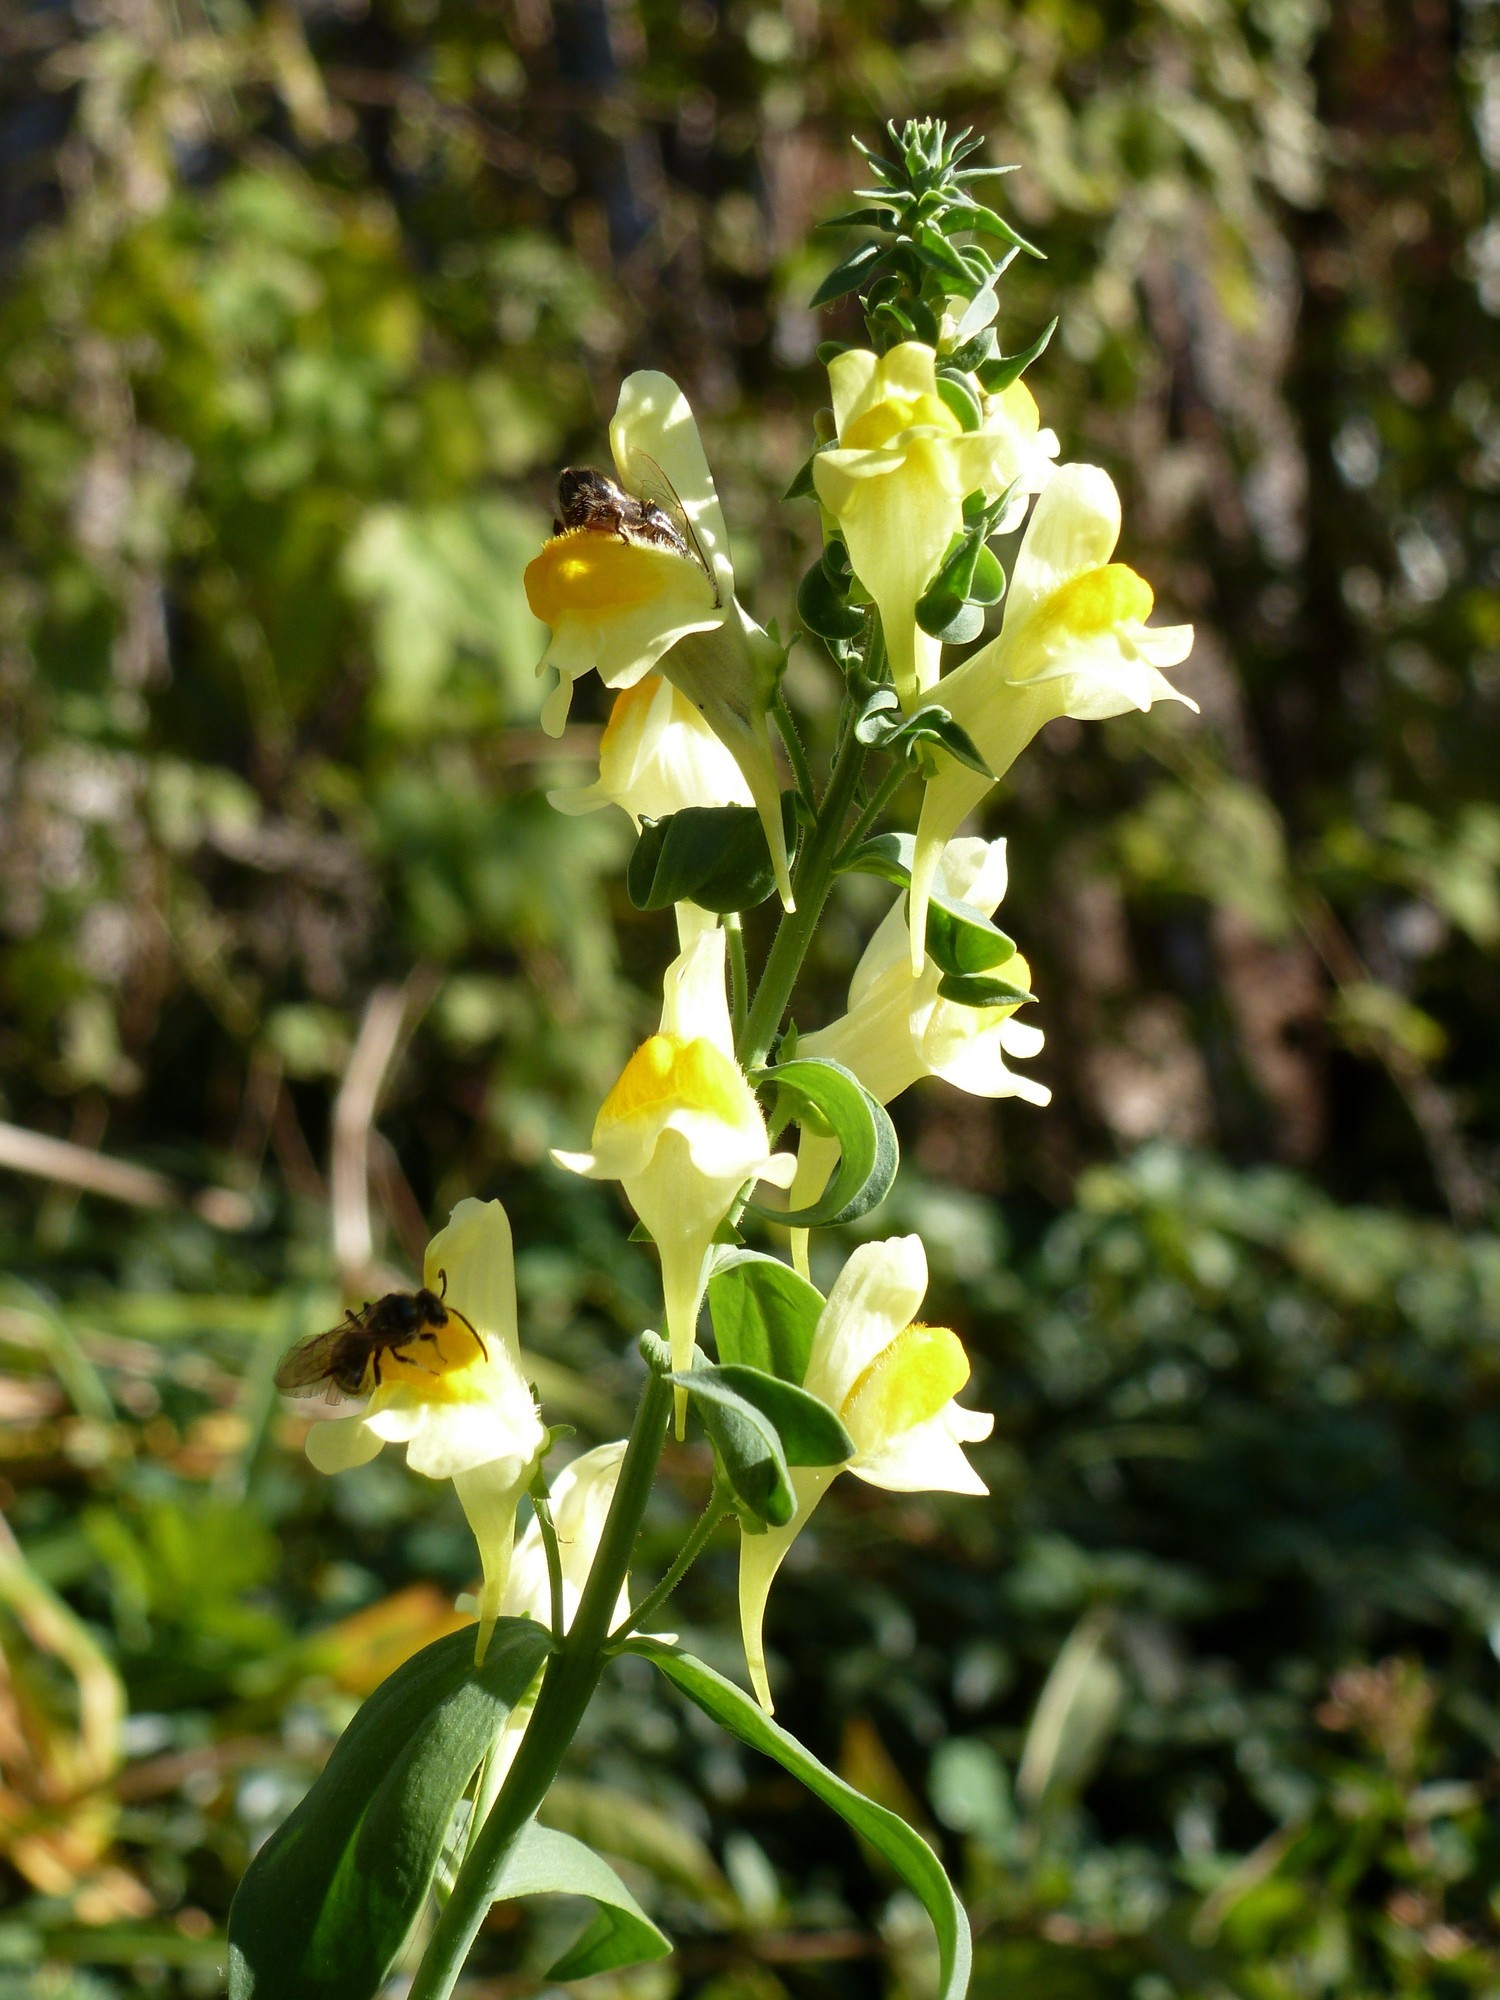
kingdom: Plantae
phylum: Tracheophyta
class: Magnoliopsida
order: Lamiales
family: Plantaginaceae
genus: Linaria
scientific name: Linaria vulgaris
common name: Butter and eggs
